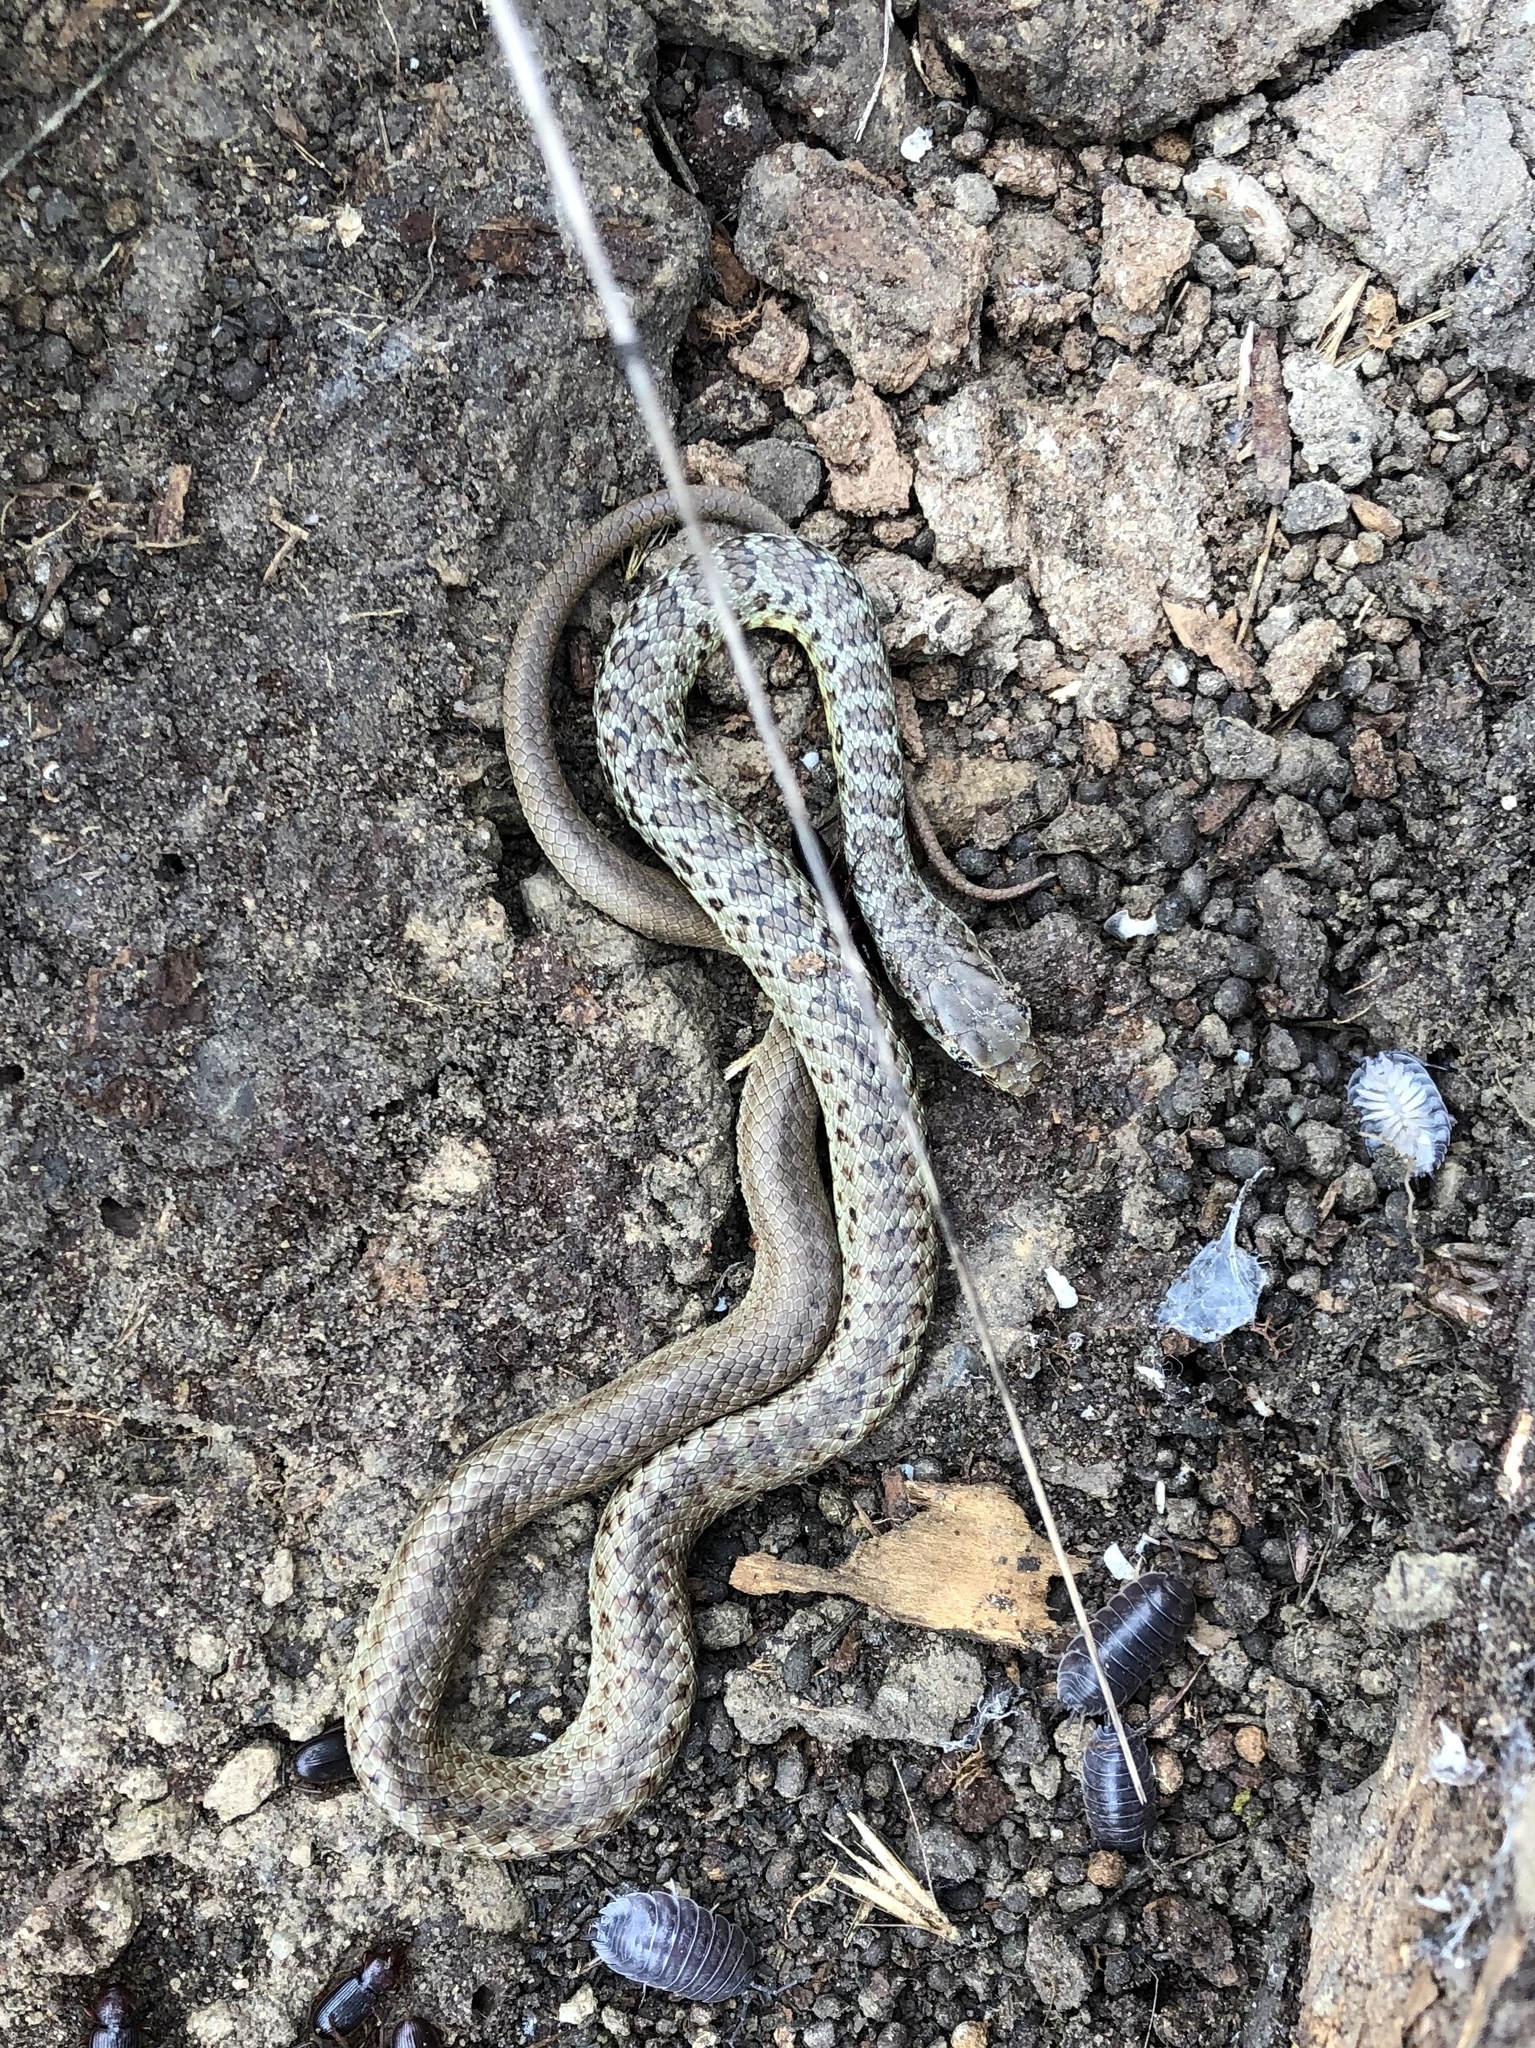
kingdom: Animalia
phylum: Chordata
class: Squamata
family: Colubridae
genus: Coluber
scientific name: Coluber constrictor
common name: Eastern racer
